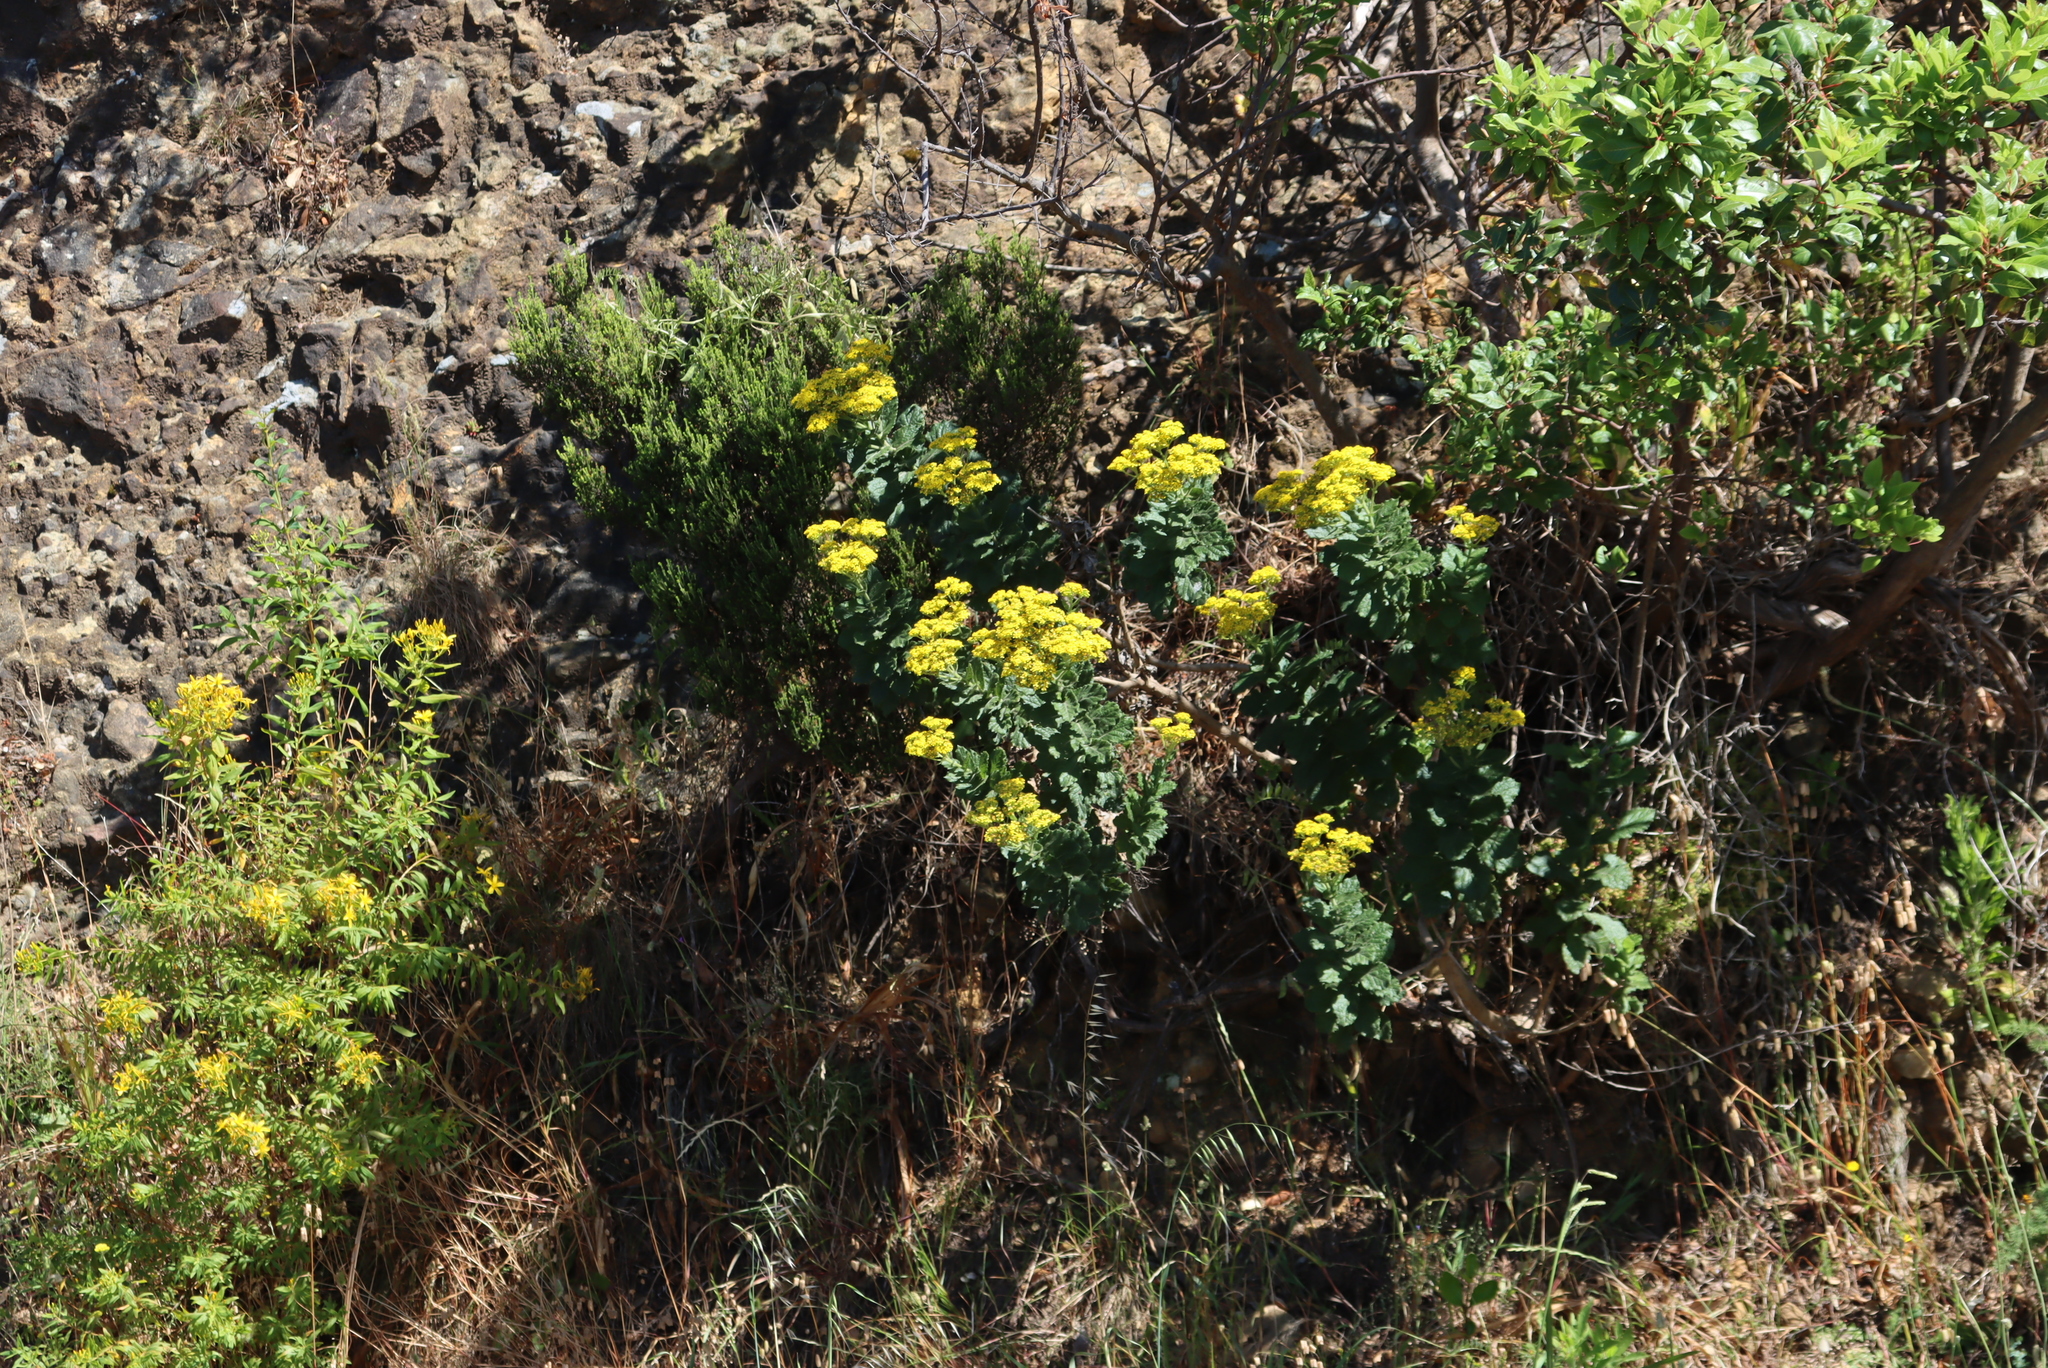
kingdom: Plantae
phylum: Tracheophyta
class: Magnoliopsida
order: Asterales
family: Asteraceae
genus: Senecio
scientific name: Senecio rigidus
